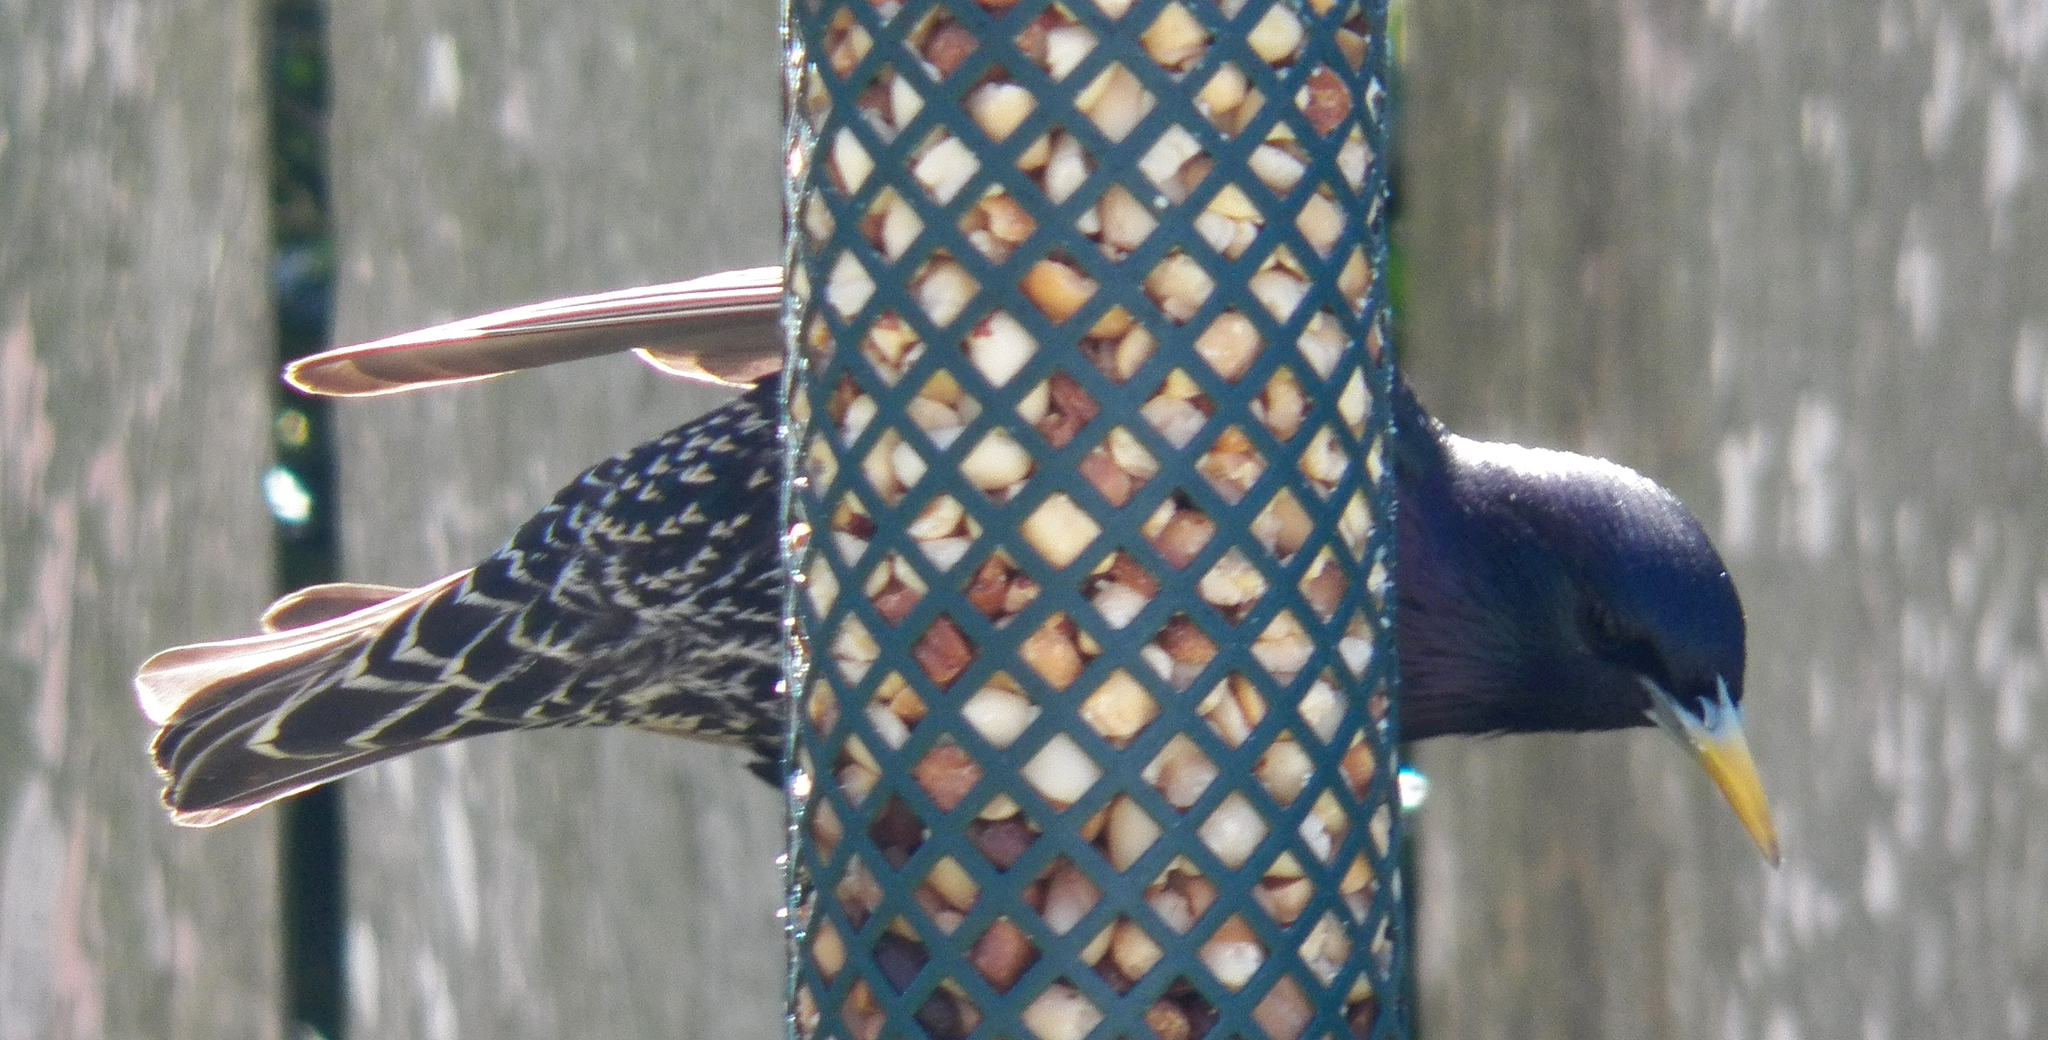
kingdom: Animalia
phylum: Chordata
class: Aves
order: Passeriformes
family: Sturnidae
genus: Sturnus
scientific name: Sturnus vulgaris
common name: Common starling
